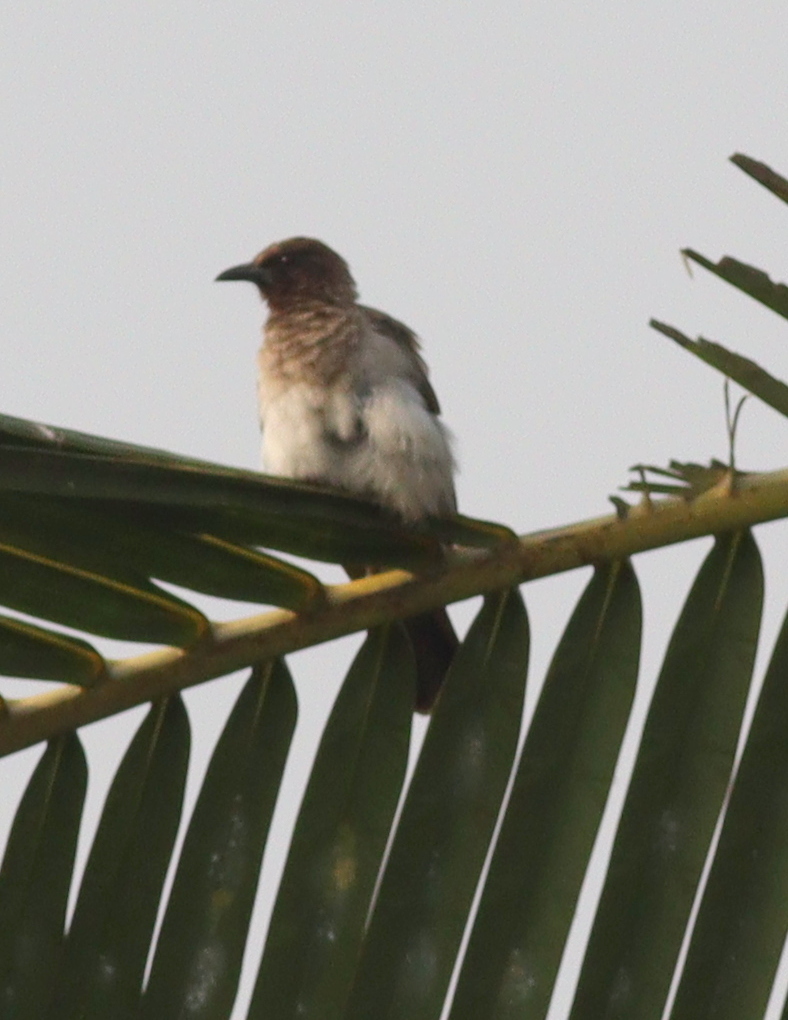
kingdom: Animalia
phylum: Chordata
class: Aves
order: Passeriformes
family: Pycnonotidae
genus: Pycnonotus
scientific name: Pycnonotus barbatus
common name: Common bulbul
